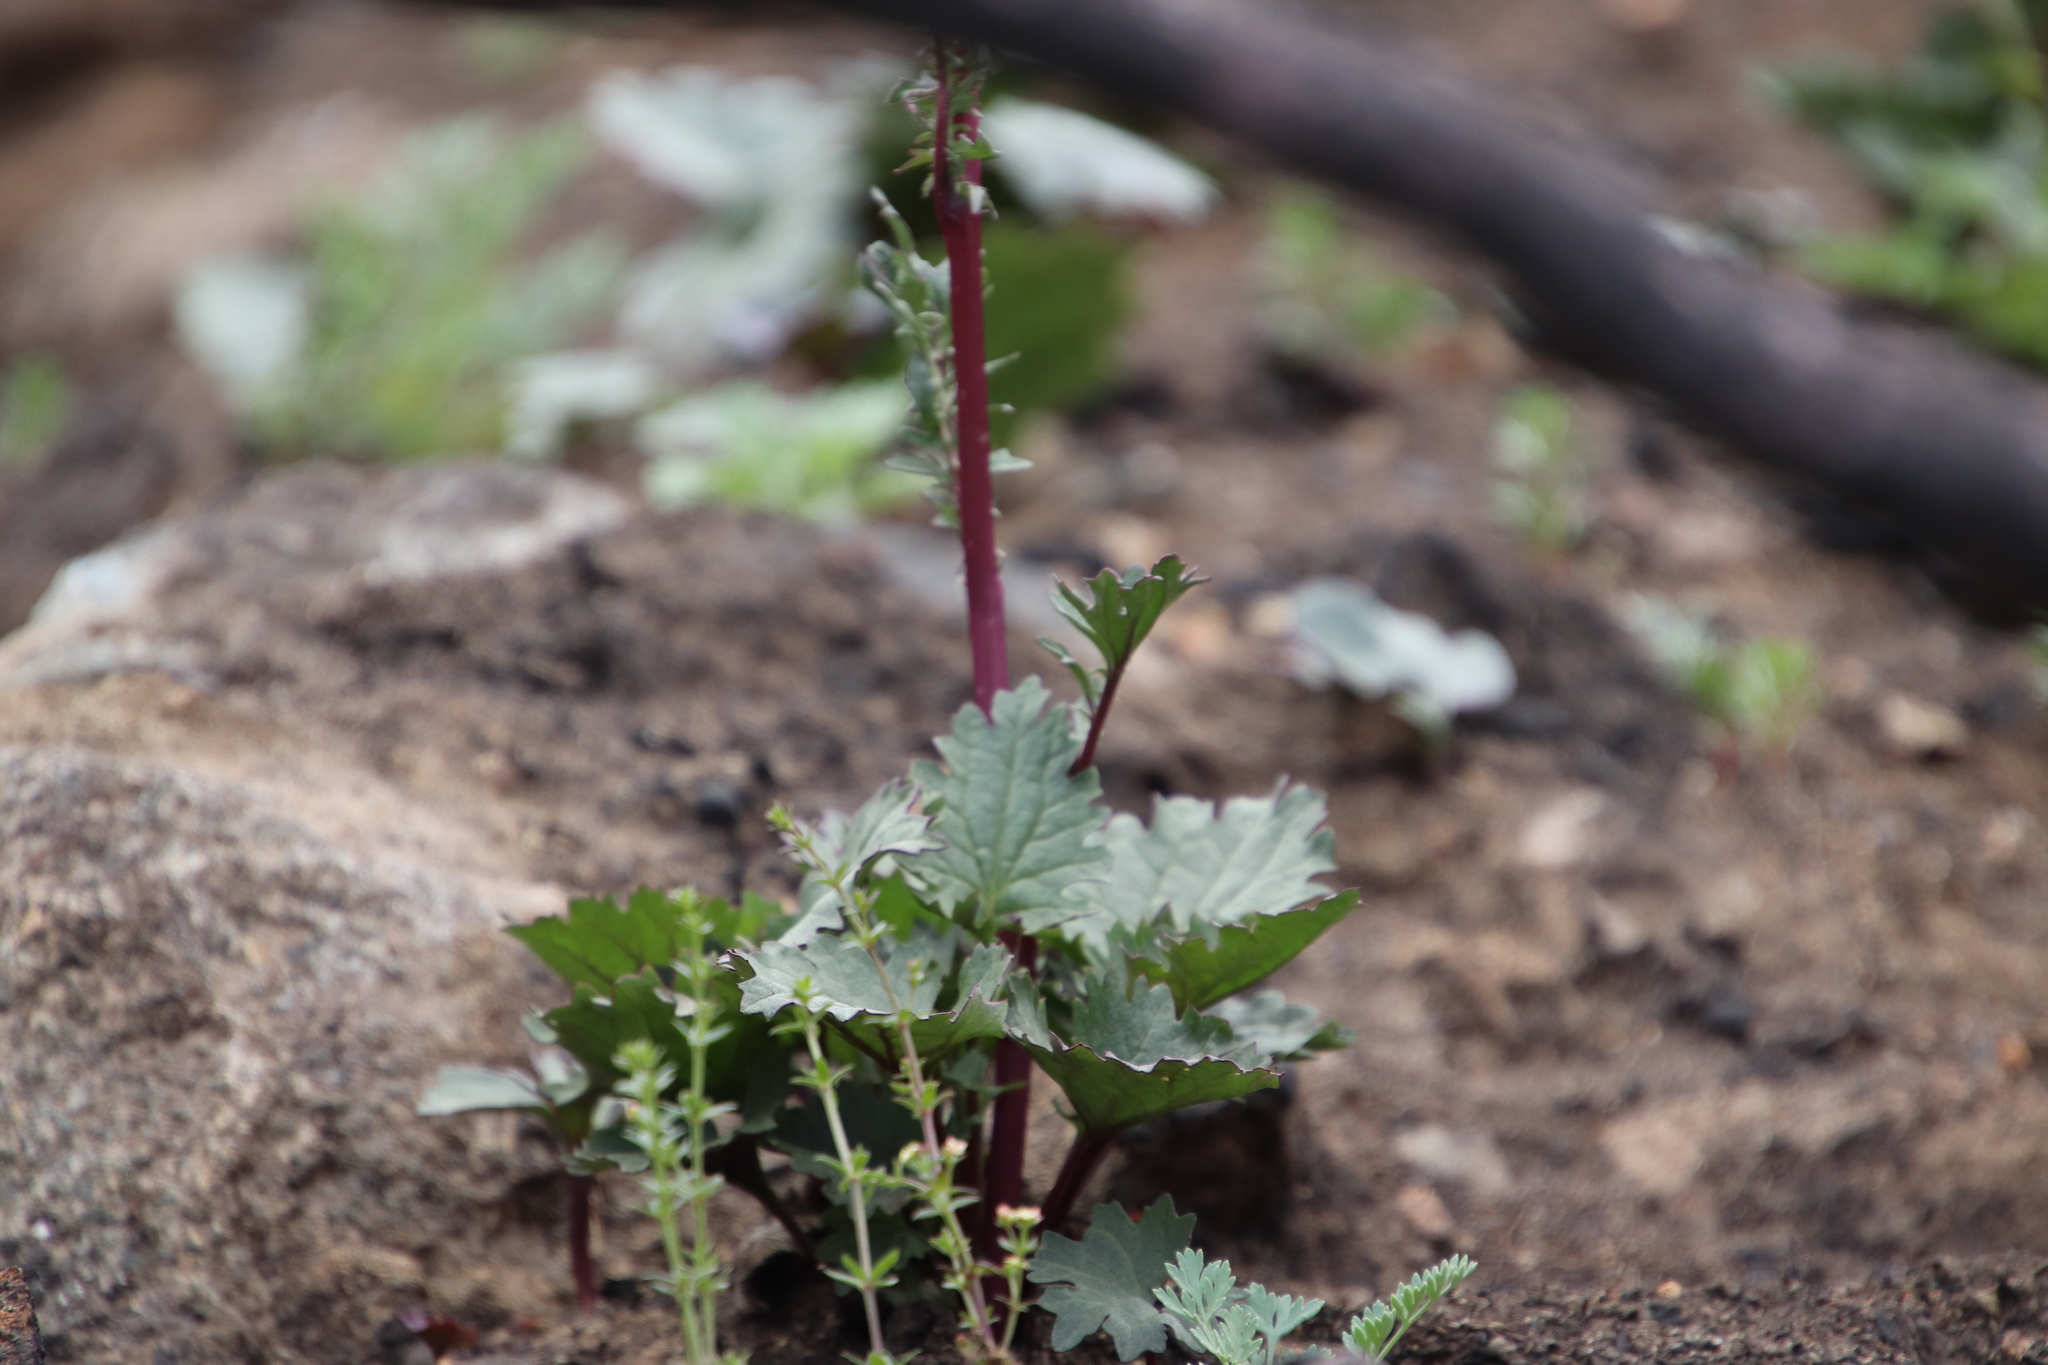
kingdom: Plantae
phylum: Tracheophyta
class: Magnoliopsida
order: Asterales
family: Asteraceae
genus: Packera
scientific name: Packera ganderi
